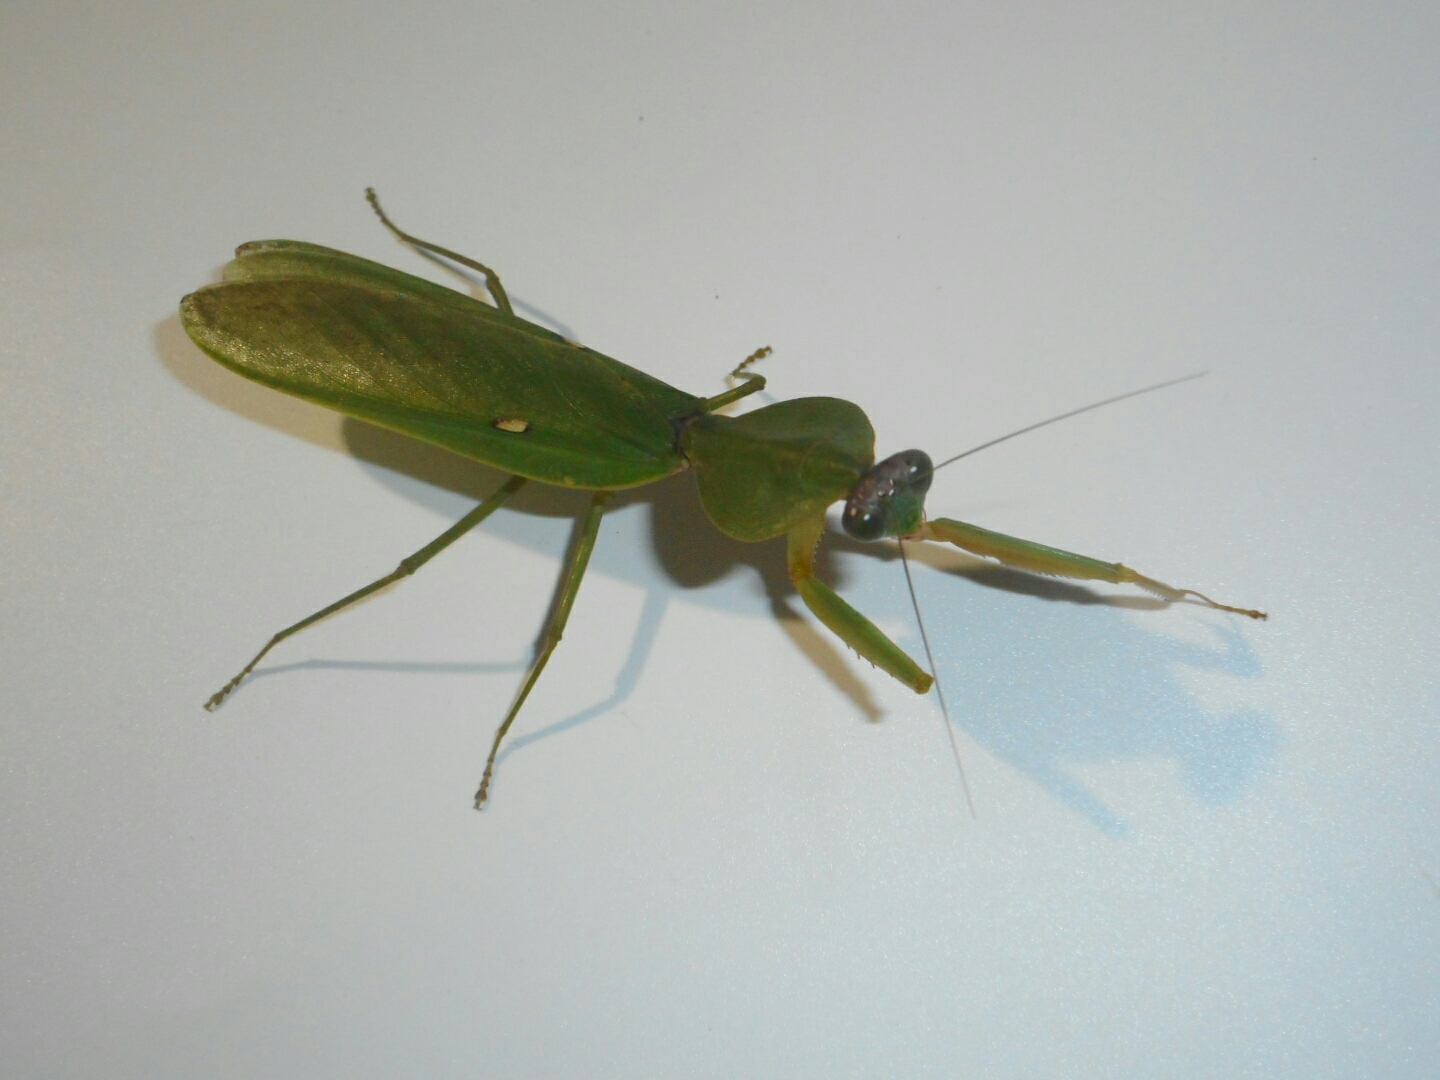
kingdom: Animalia
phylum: Arthropoda
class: Insecta
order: Mantodea
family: Mantidae
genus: Rhombodera
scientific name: Rhombodera latipronotum
